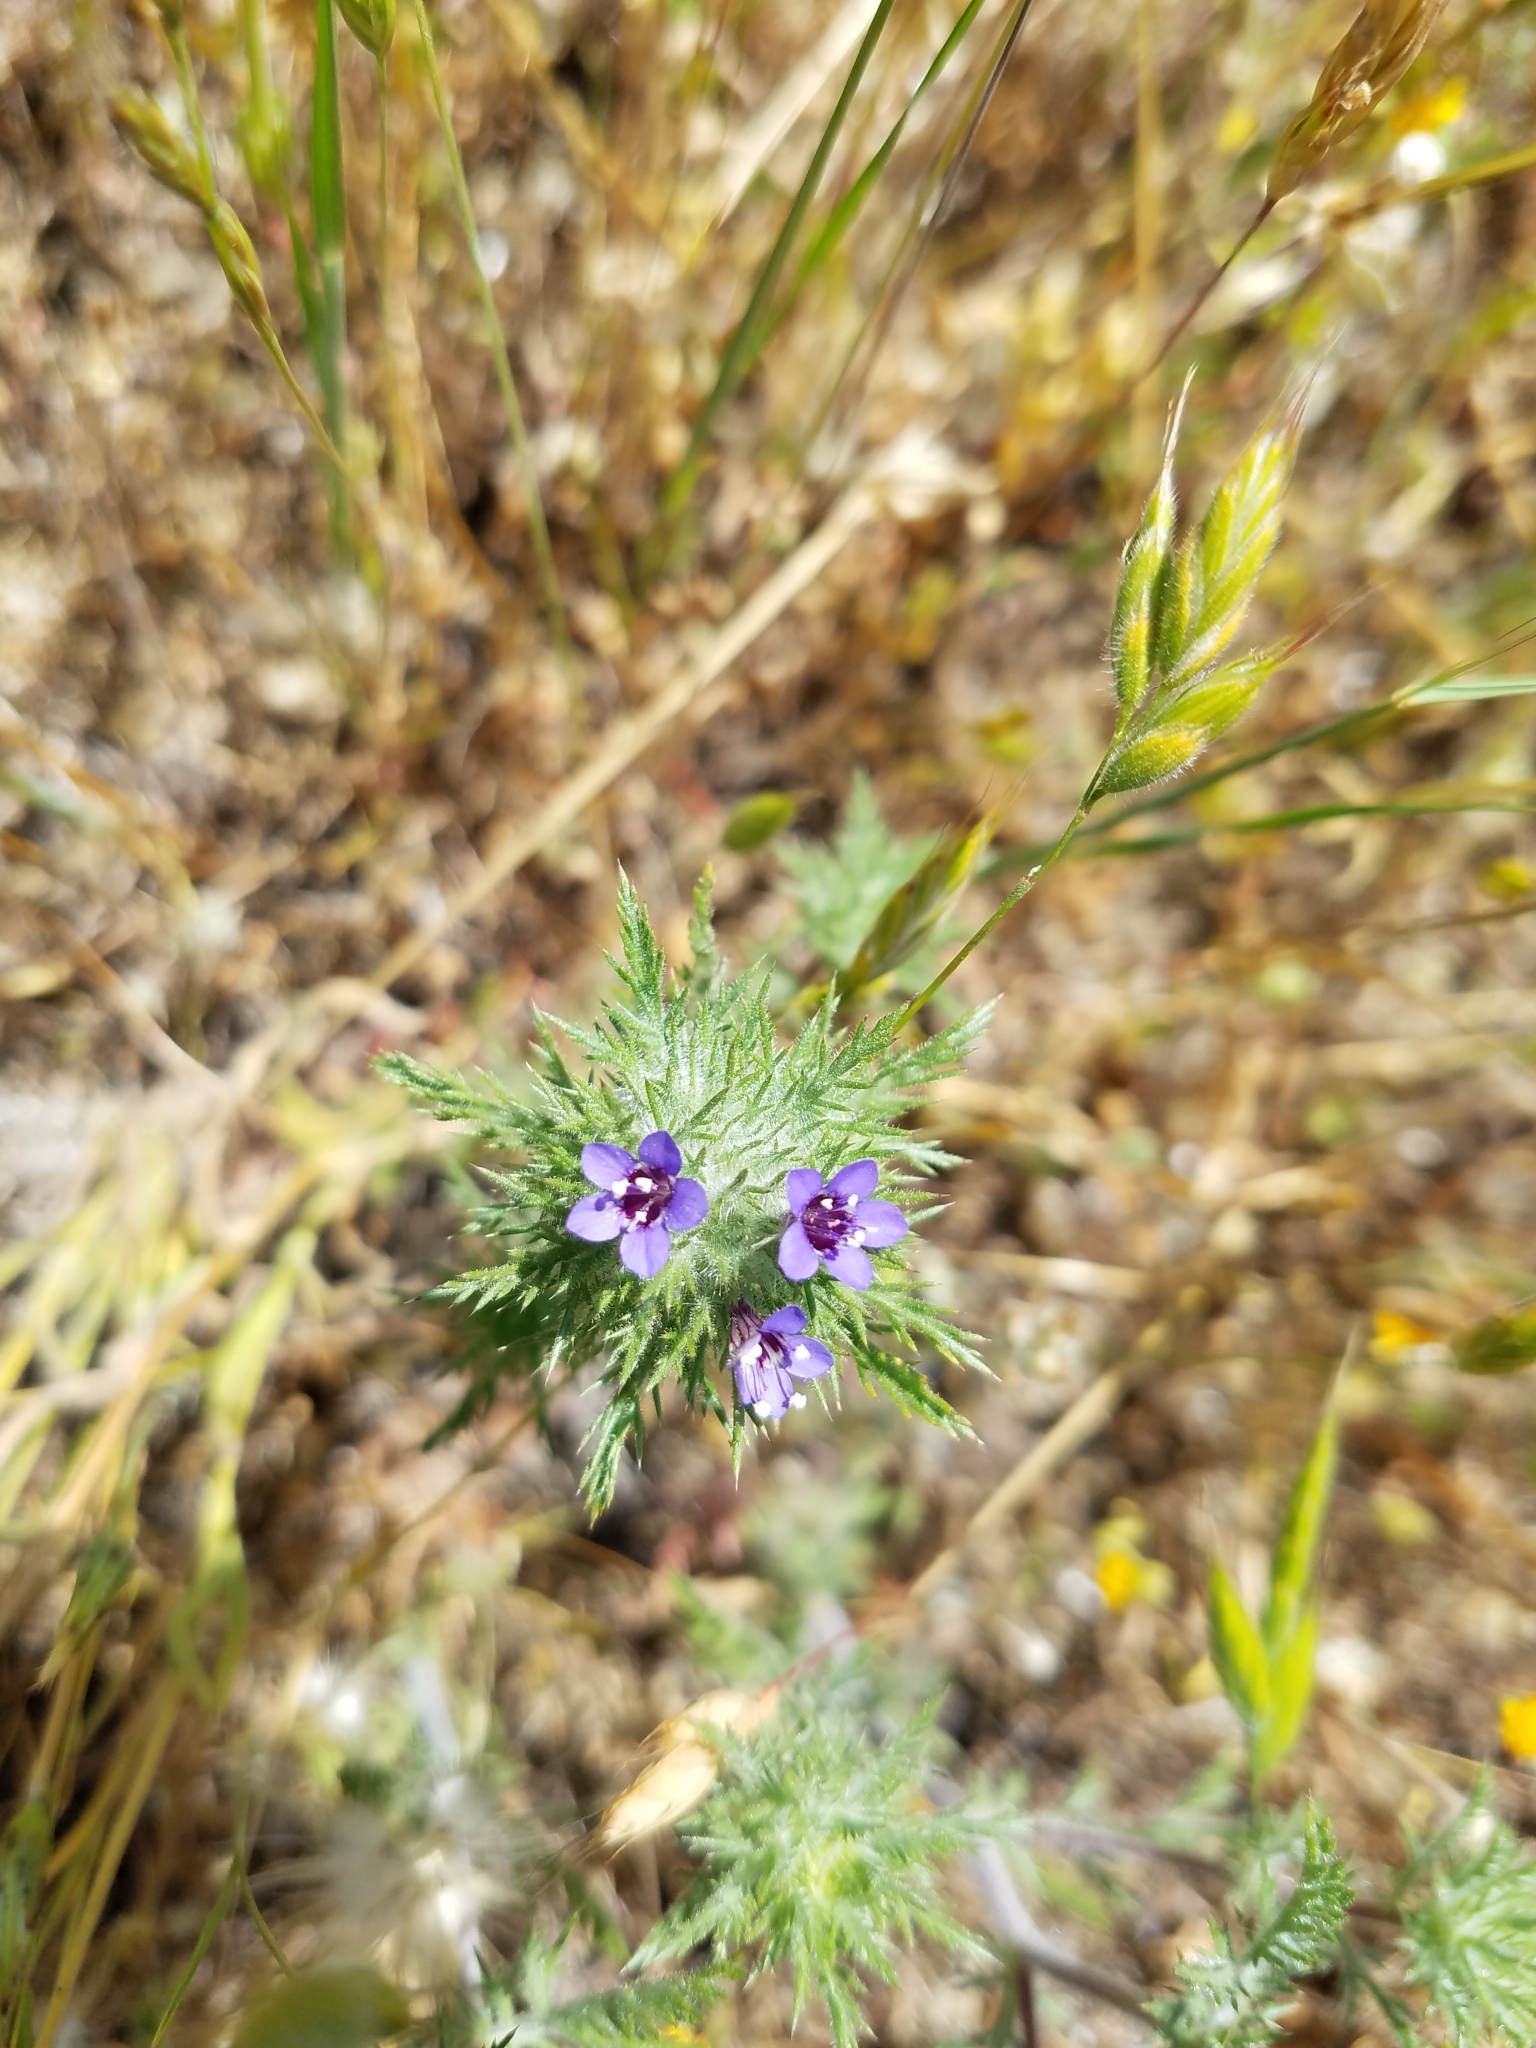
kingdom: Plantae
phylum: Tracheophyta
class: Magnoliopsida
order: Ericales
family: Polemoniaceae
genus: Navarretia
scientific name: Navarretia pubescens
